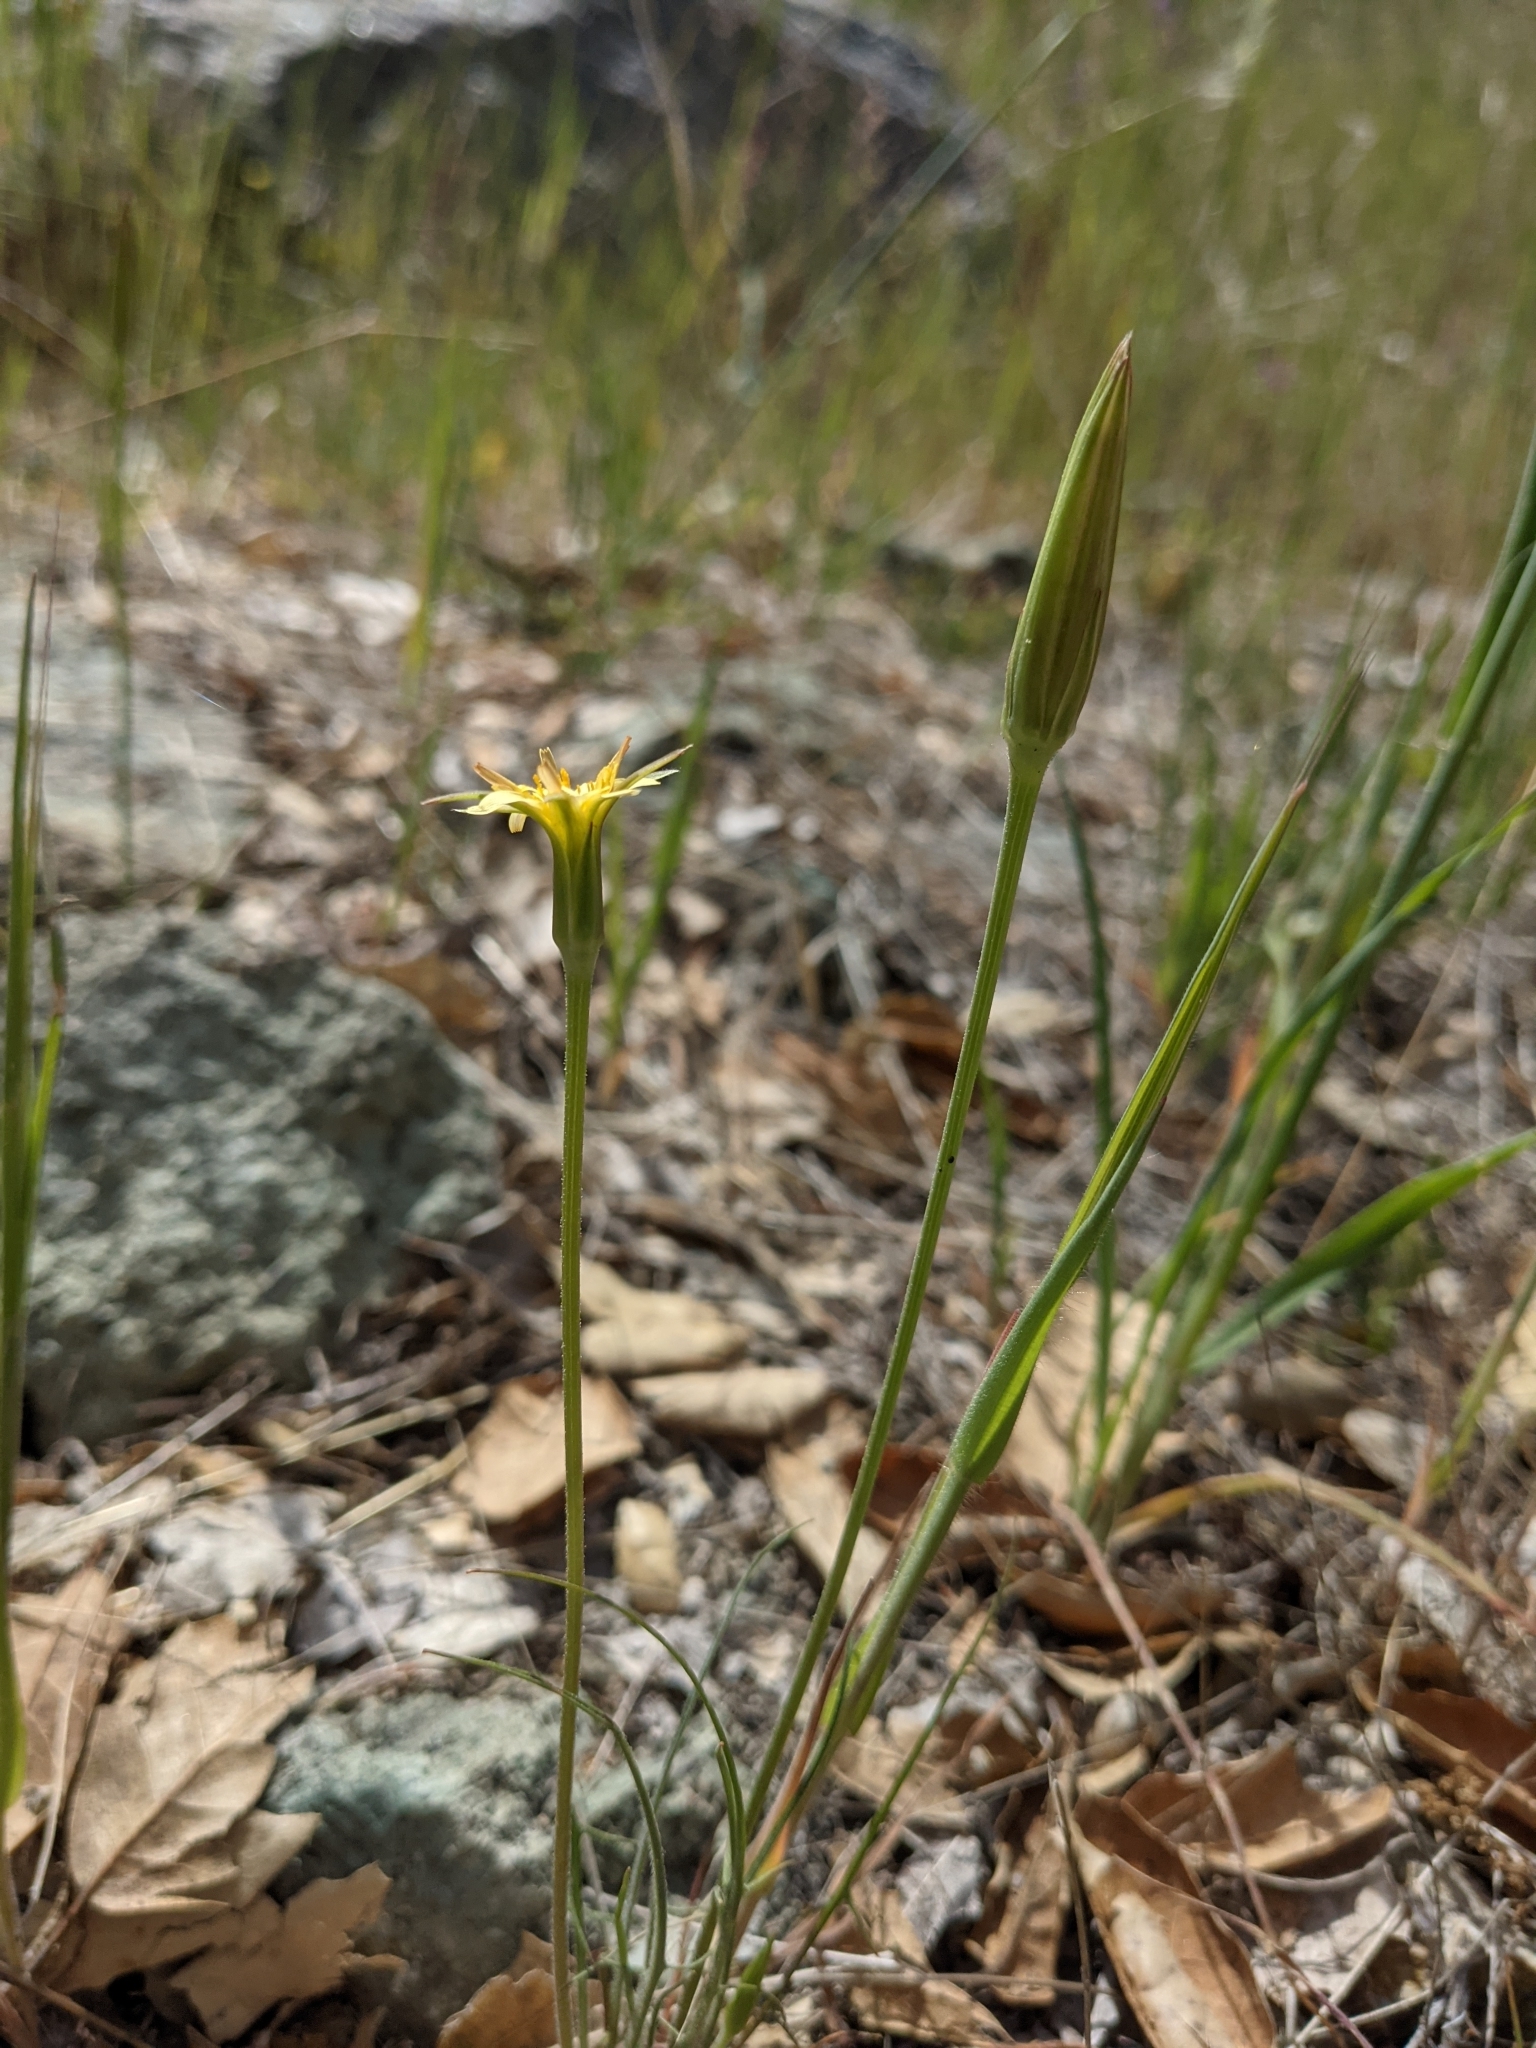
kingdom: Plantae
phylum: Tracheophyta
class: Magnoliopsida
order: Asterales
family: Asteraceae
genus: Microseris
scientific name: Microseris lindleyi
